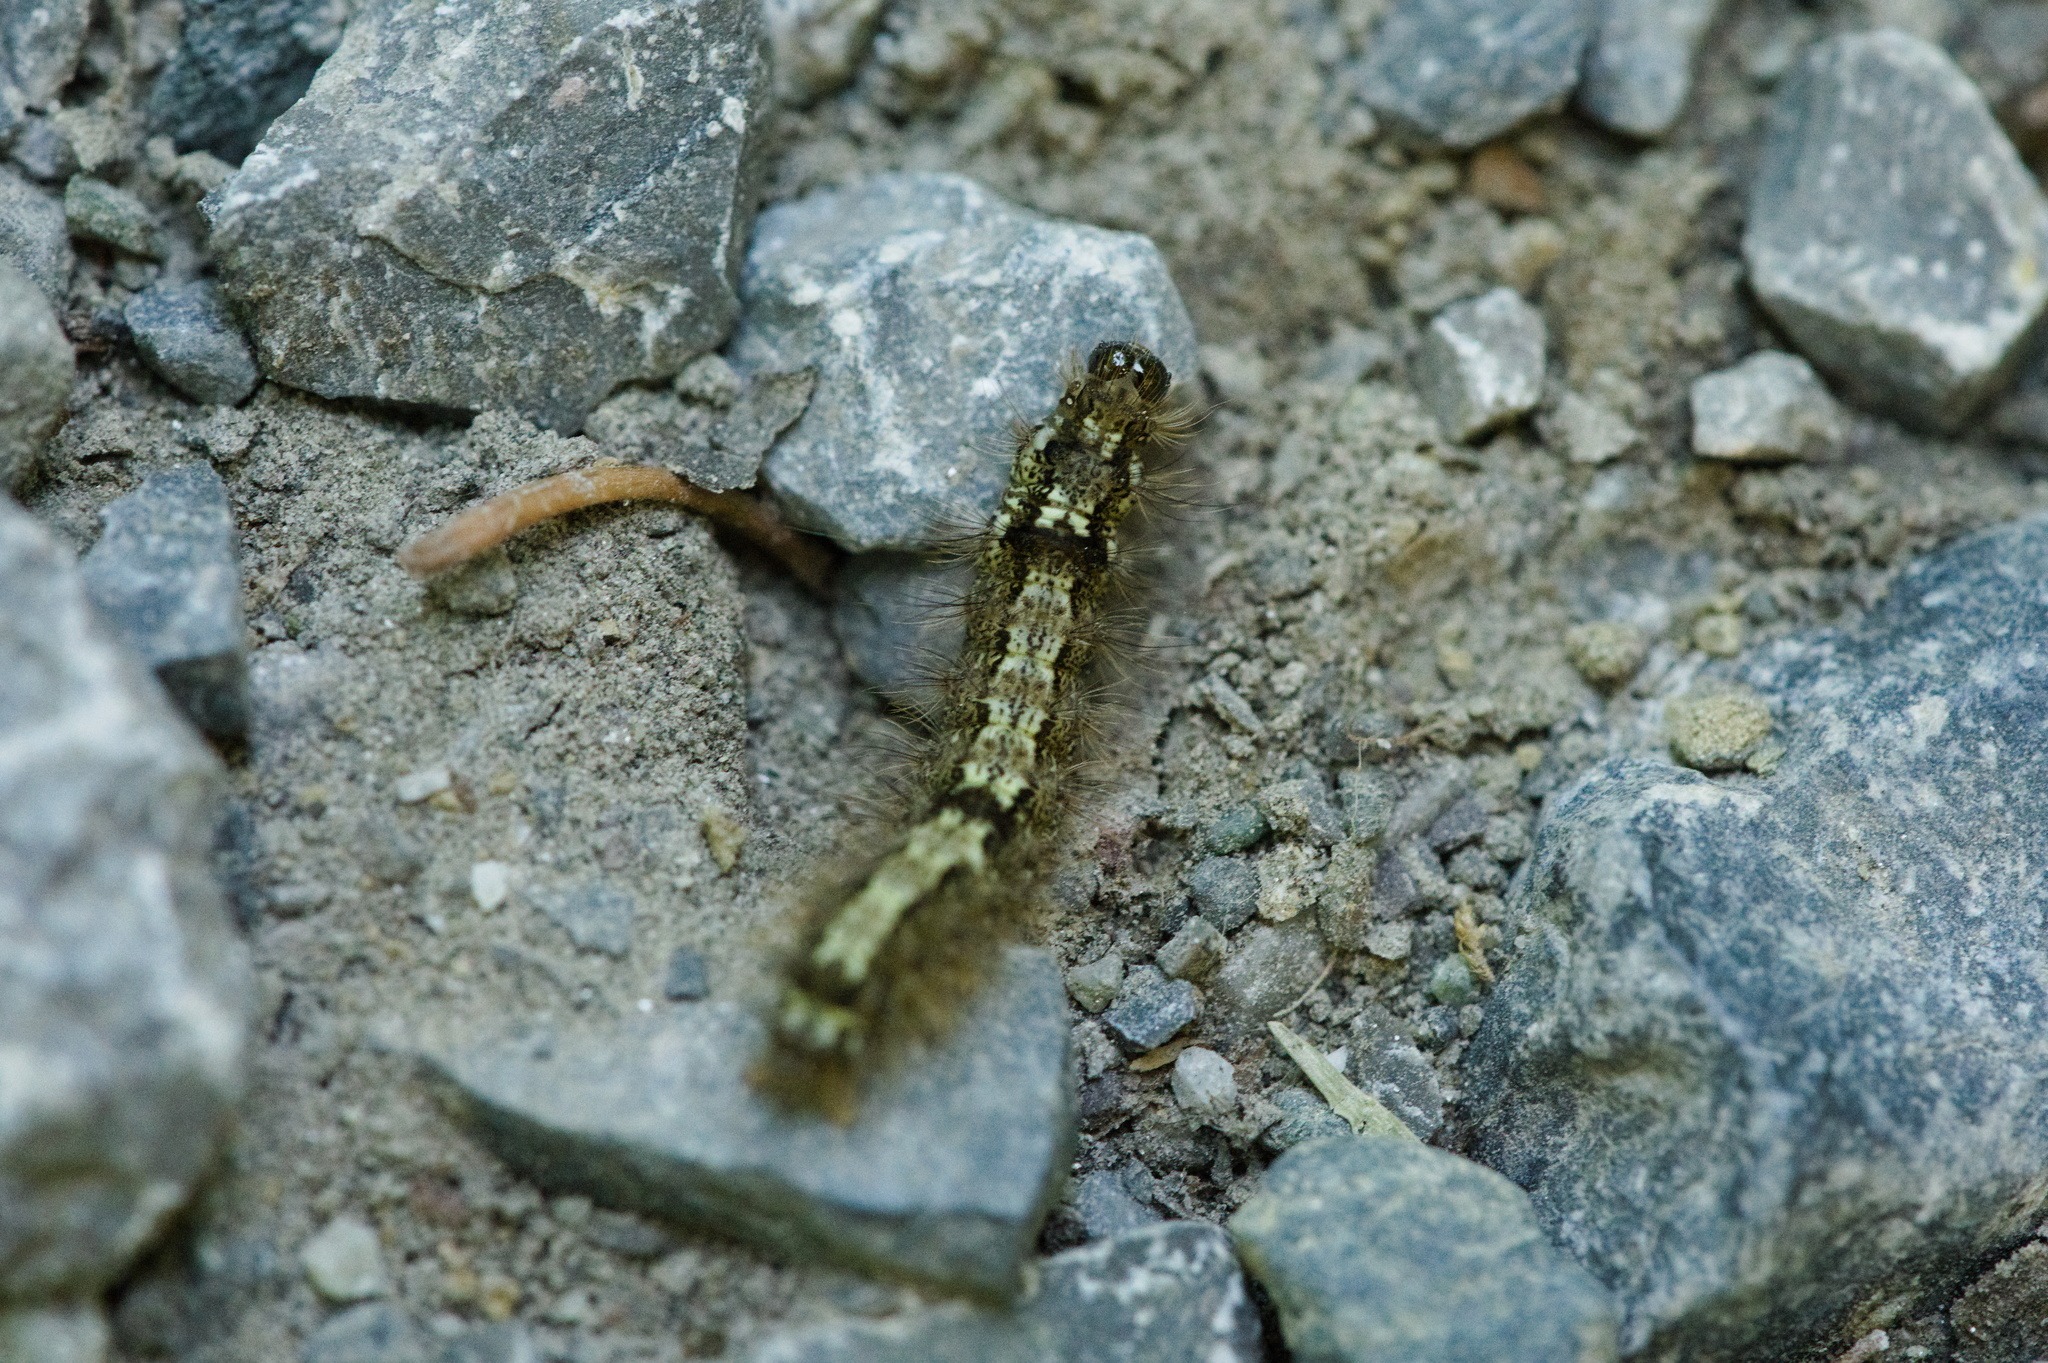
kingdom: Animalia
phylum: Arthropoda
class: Insecta
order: Lepidoptera
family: Erebidae
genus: Katha
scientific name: Katha depressa
